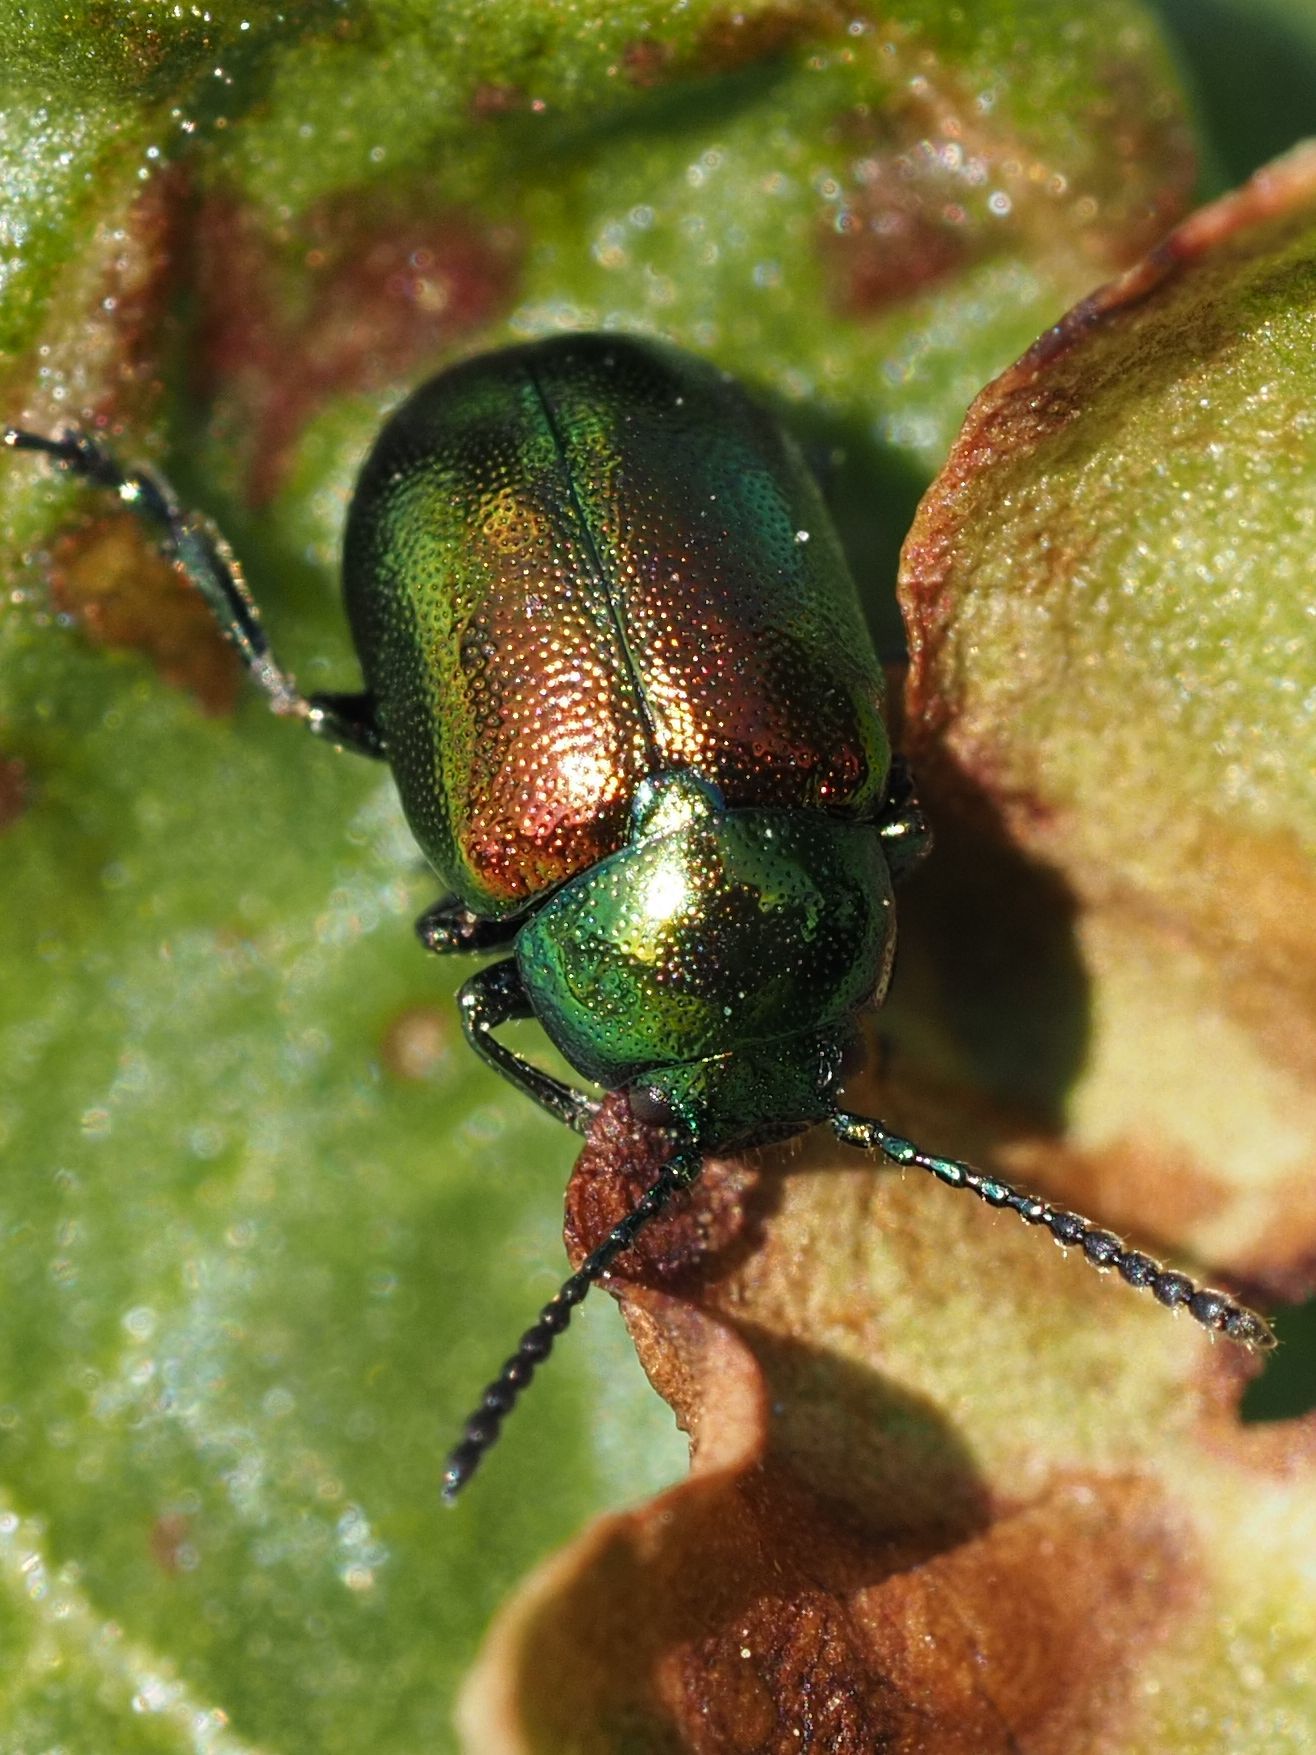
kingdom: Animalia
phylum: Arthropoda
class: Insecta
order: Coleoptera
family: Chrysomelidae
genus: Gastrophysa
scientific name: Gastrophysa viridula
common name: Green dock beetle
